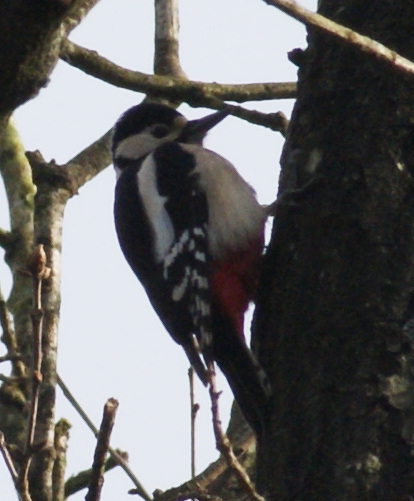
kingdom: Animalia
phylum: Chordata
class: Aves
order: Piciformes
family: Picidae
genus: Dendrocopos
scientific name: Dendrocopos major
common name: Great spotted woodpecker
